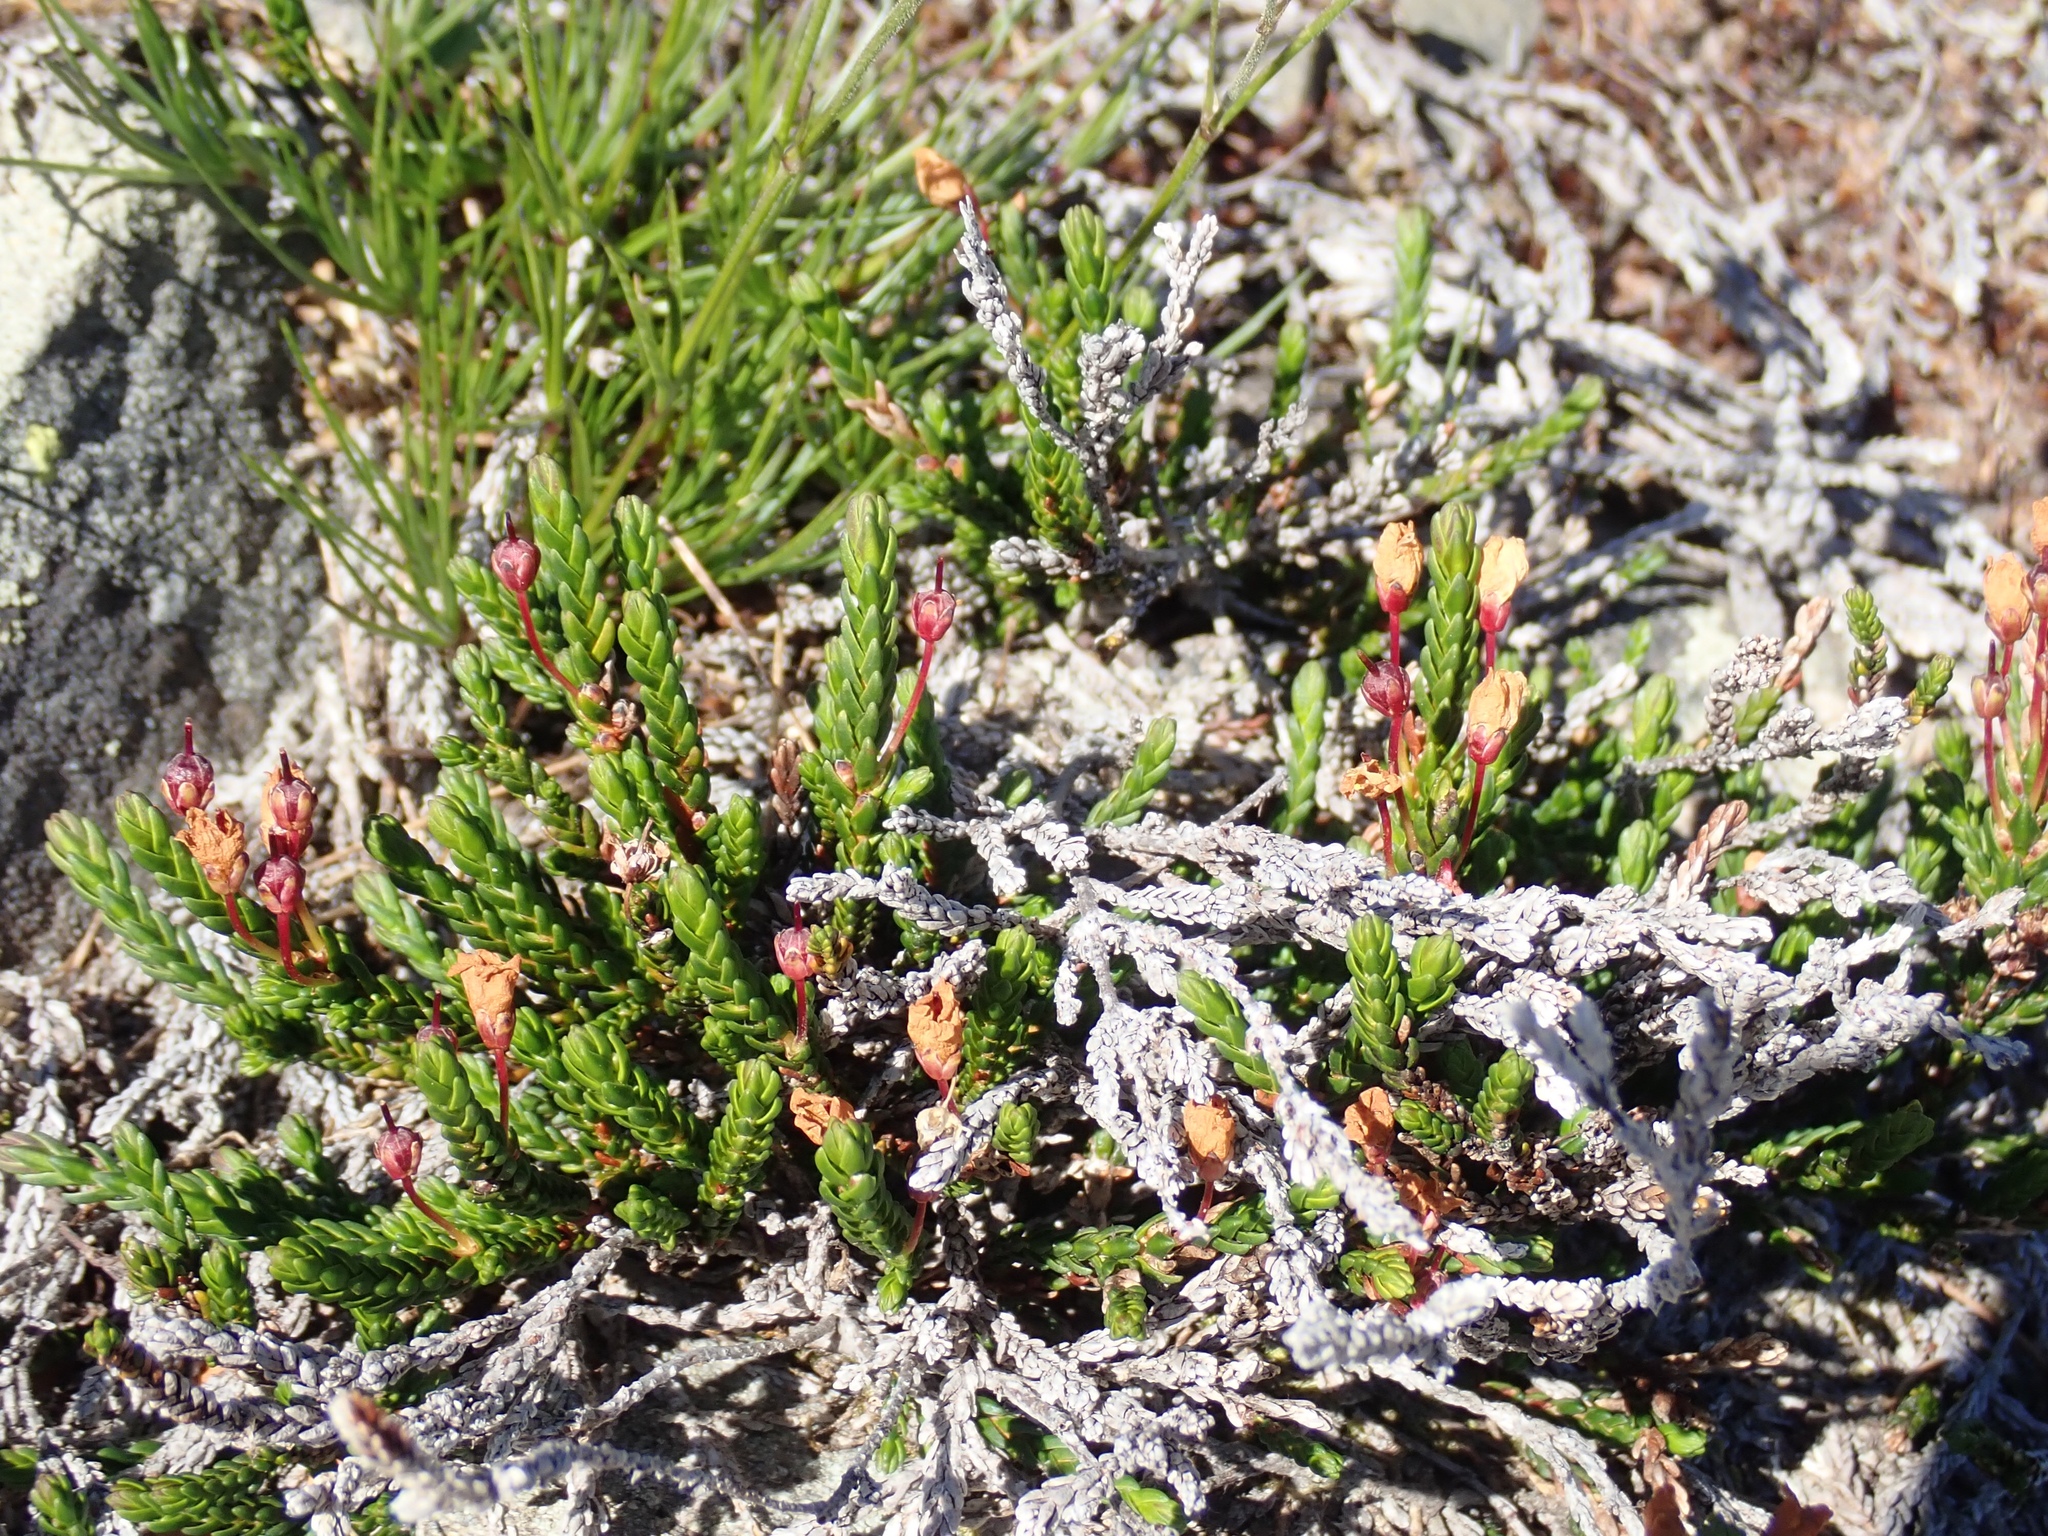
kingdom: Plantae
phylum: Tracheophyta
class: Magnoliopsida
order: Ericales
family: Ericaceae
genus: Cassiope
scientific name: Cassiope mertensiana
